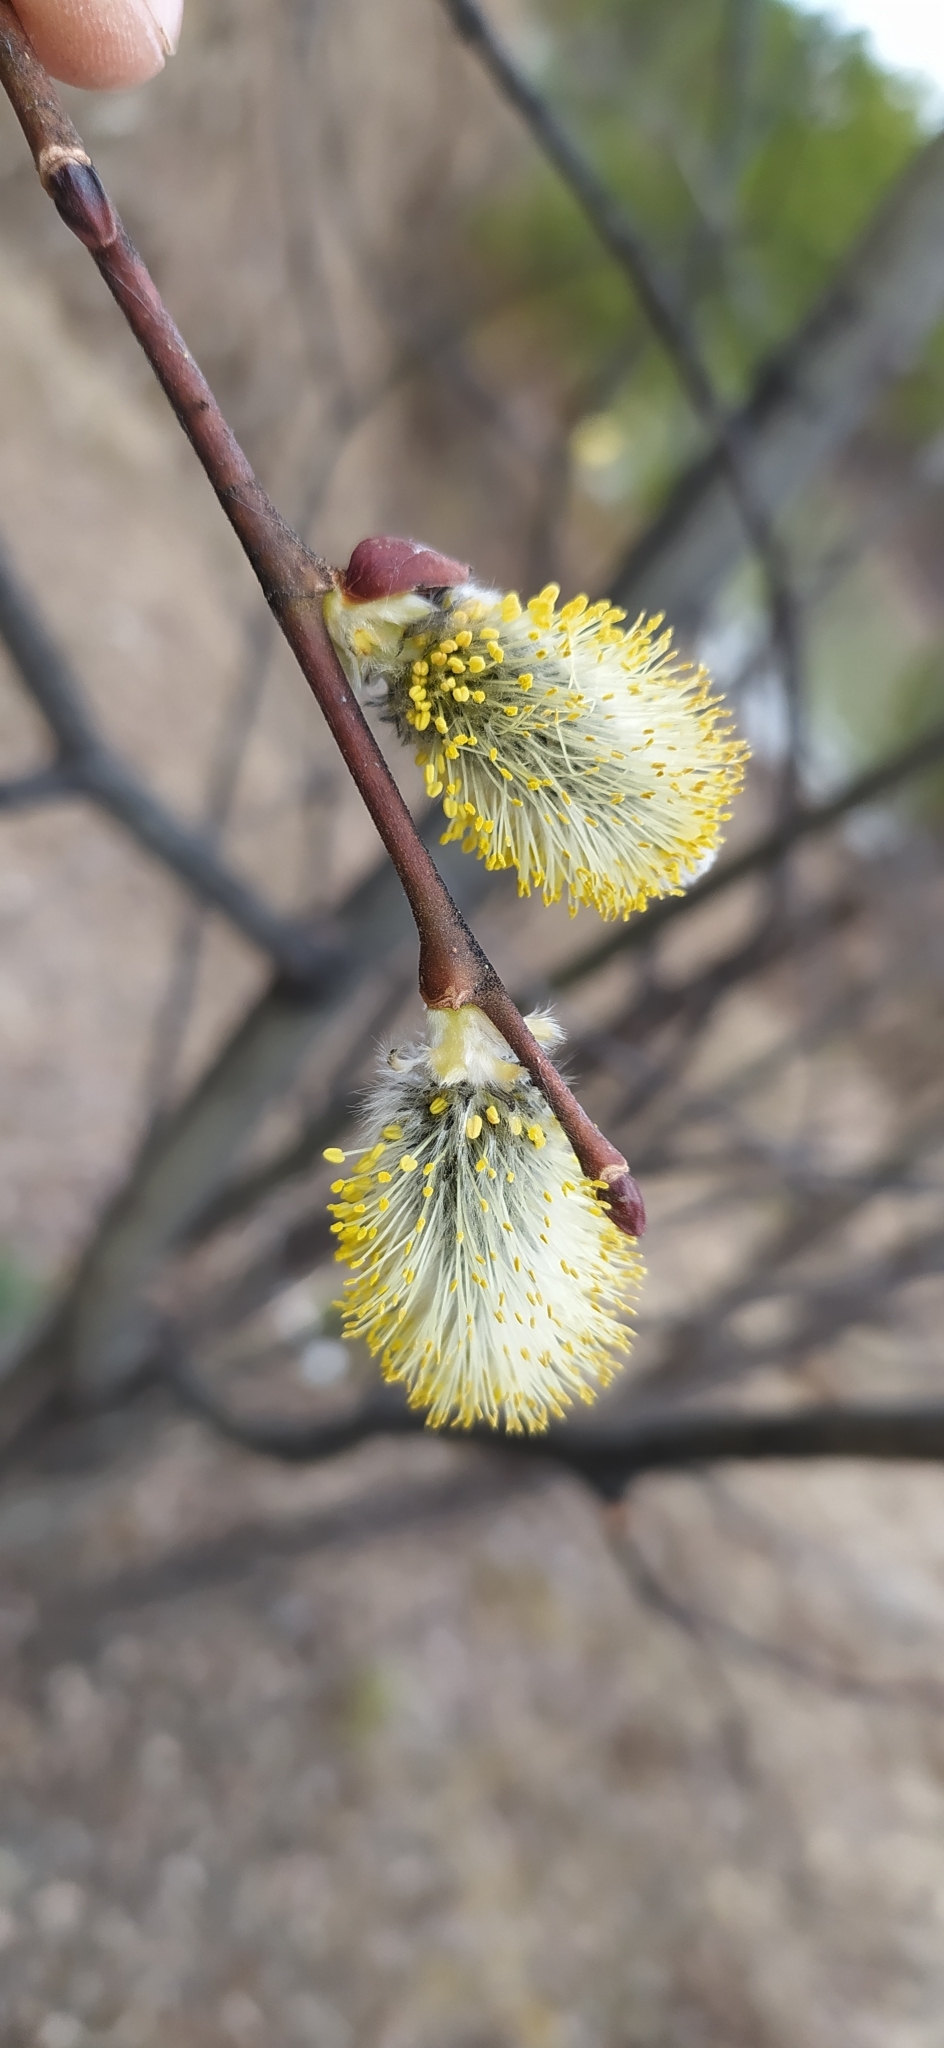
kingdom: Plantae
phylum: Tracheophyta
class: Magnoliopsida
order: Malpighiales
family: Salicaceae
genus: Salix
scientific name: Salix caprea
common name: Goat willow
